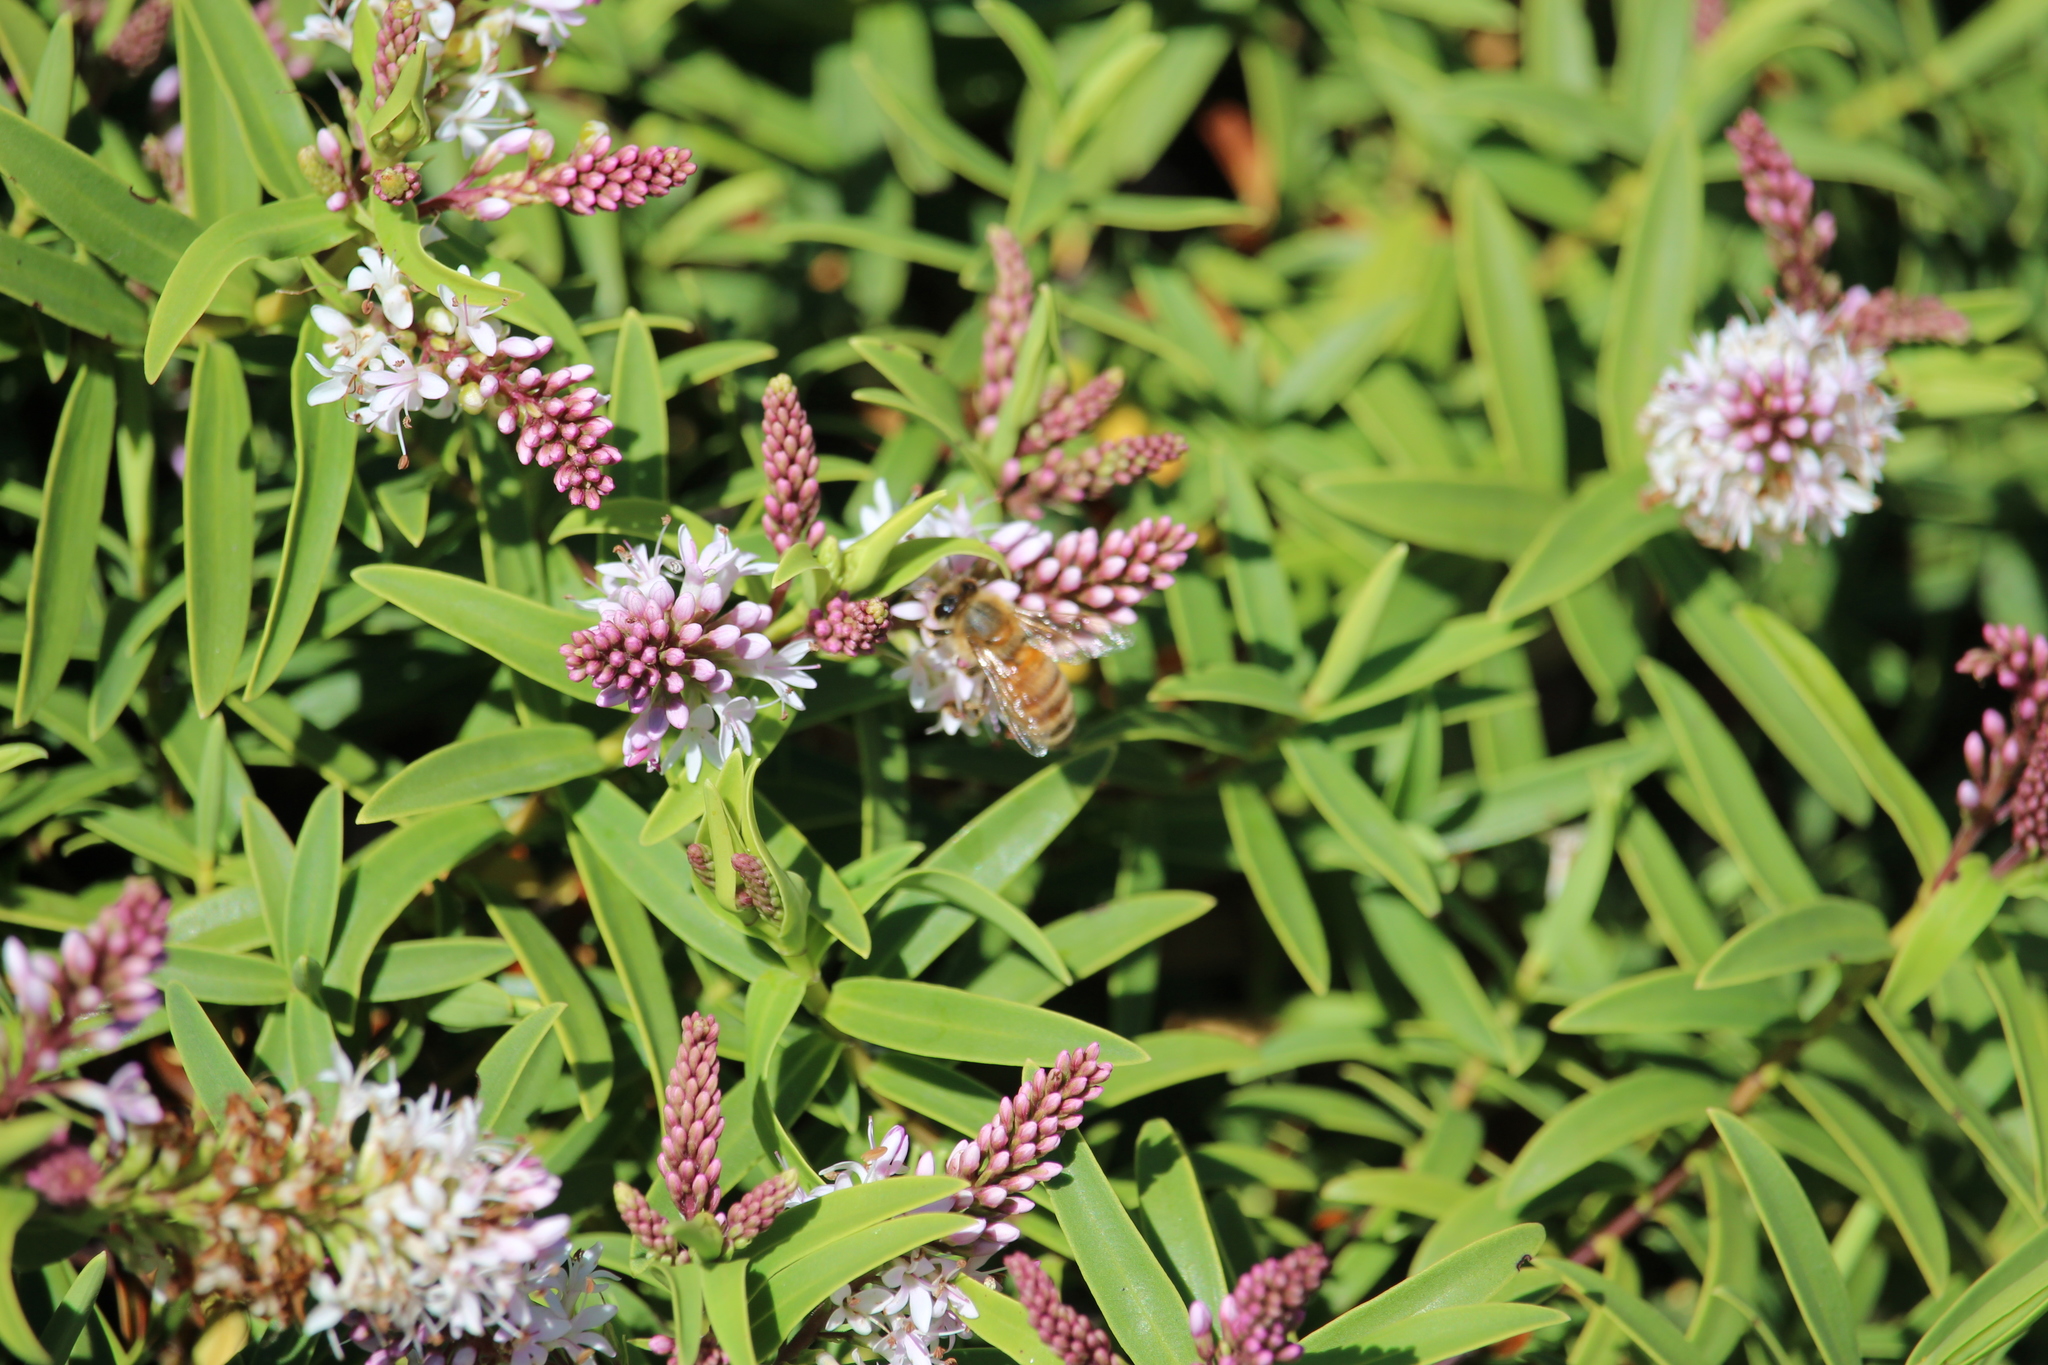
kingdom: Animalia
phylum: Arthropoda
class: Insecta
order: Hymenoptera
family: Apidae
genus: Apis
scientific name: Apis mellifera
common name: Honey bee
